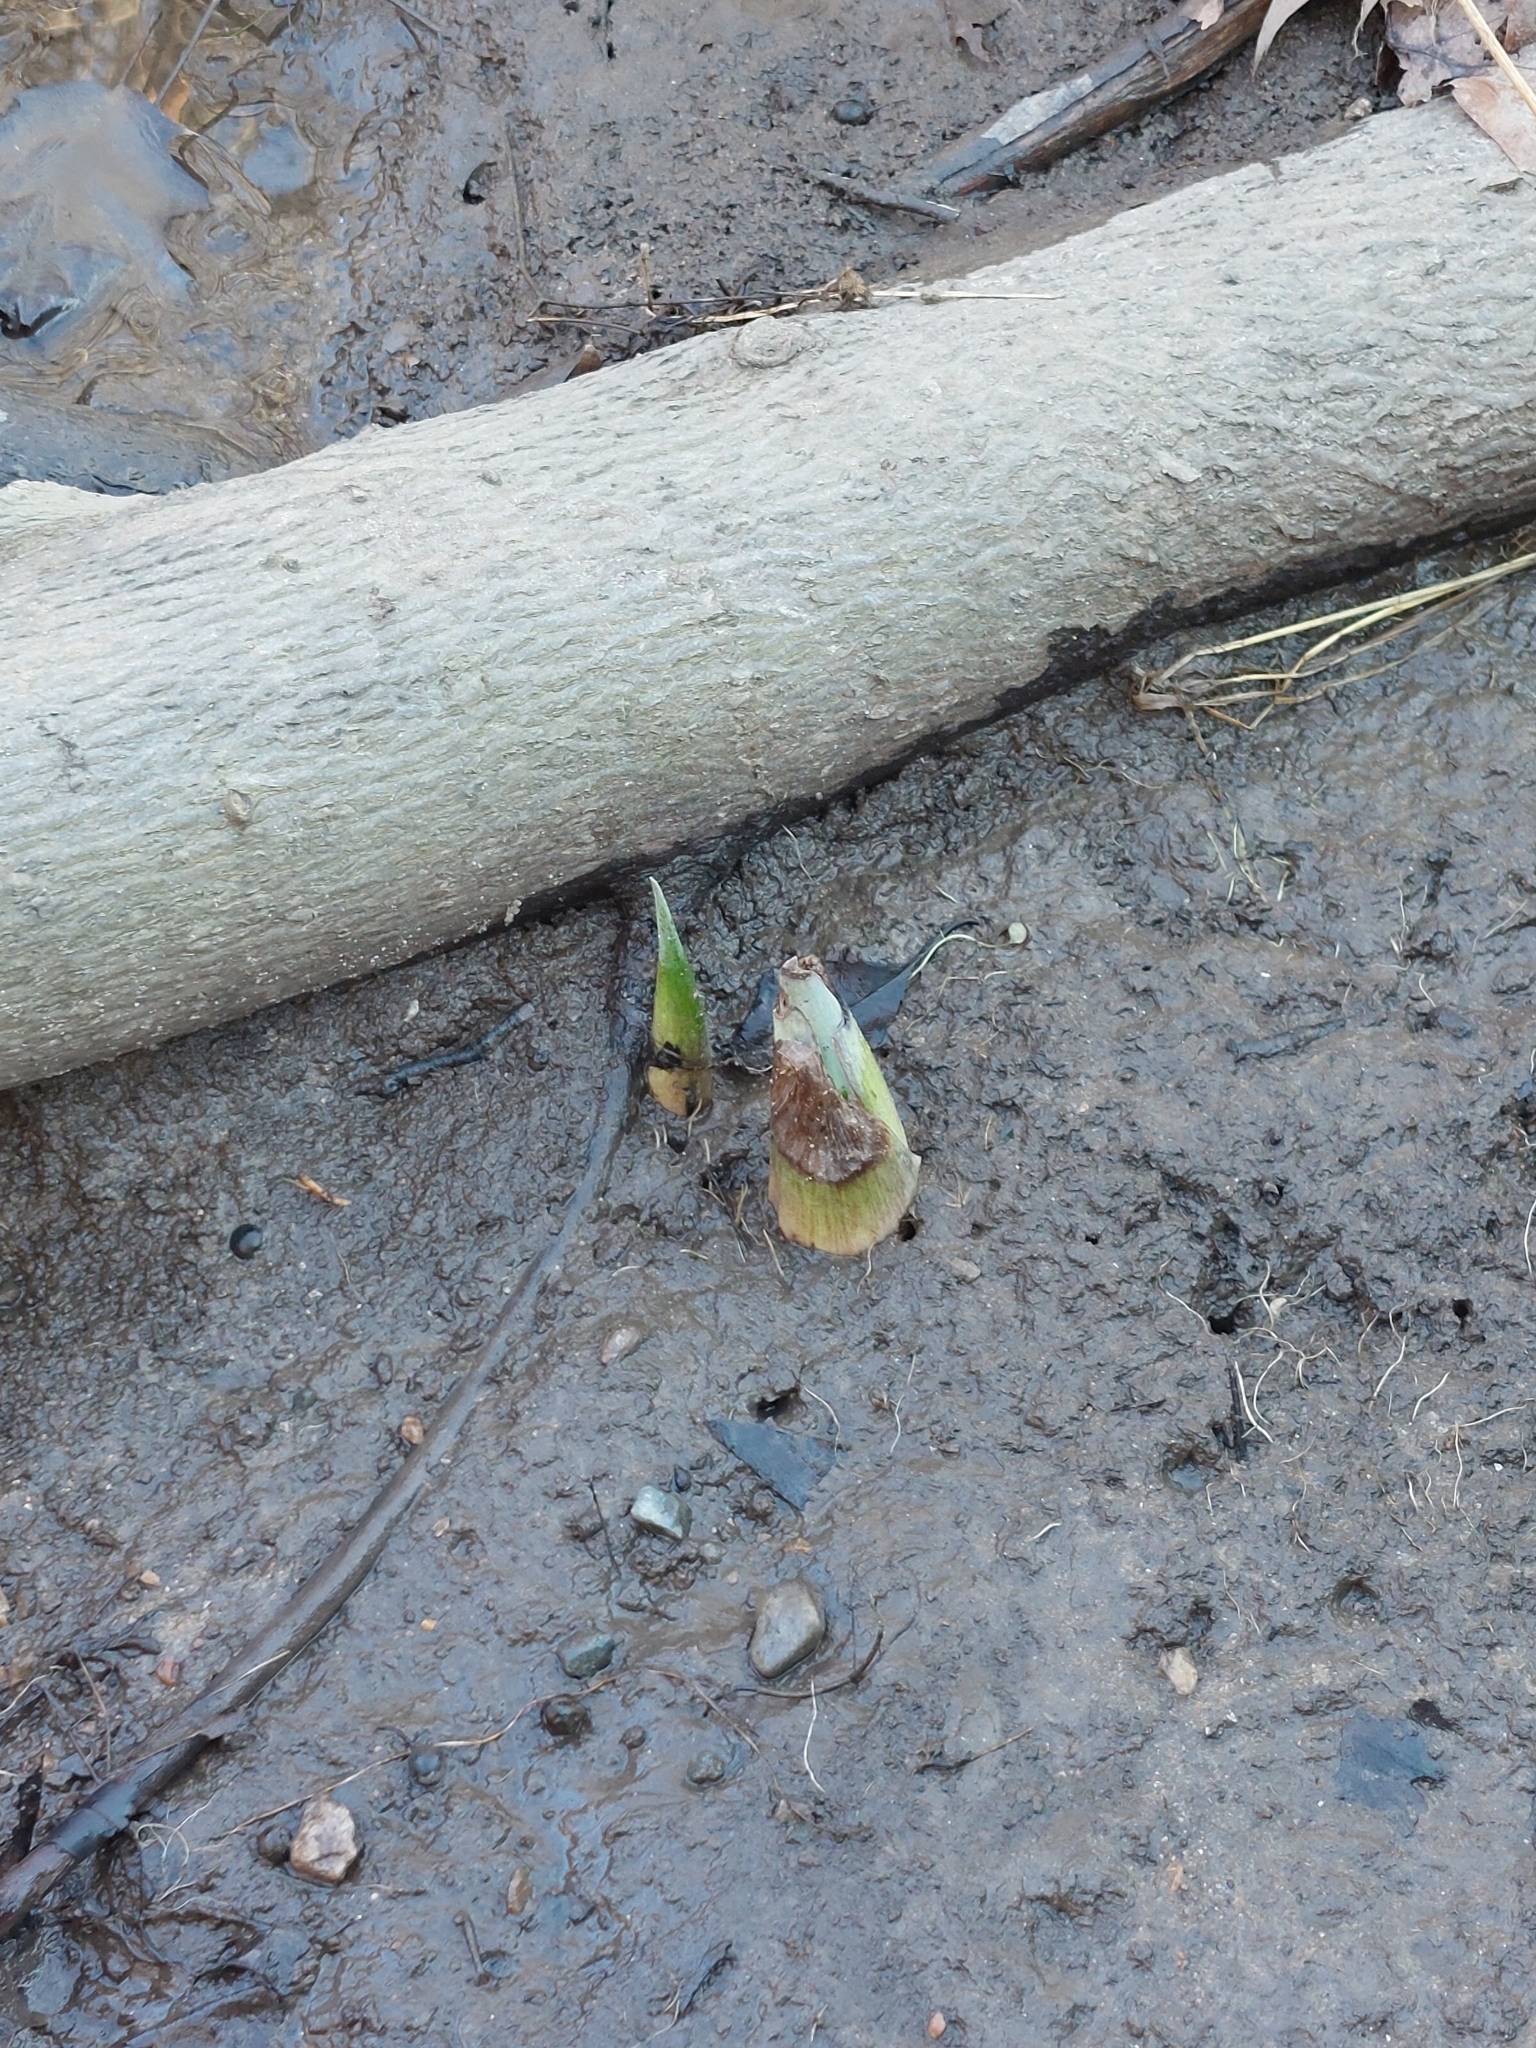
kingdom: Plantae
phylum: Tracheophyta
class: Liliopsida
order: Alismatales
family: Araceae
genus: Symplocarpus
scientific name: Symplocarpus foetidus
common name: Eastern skunk cabbage
